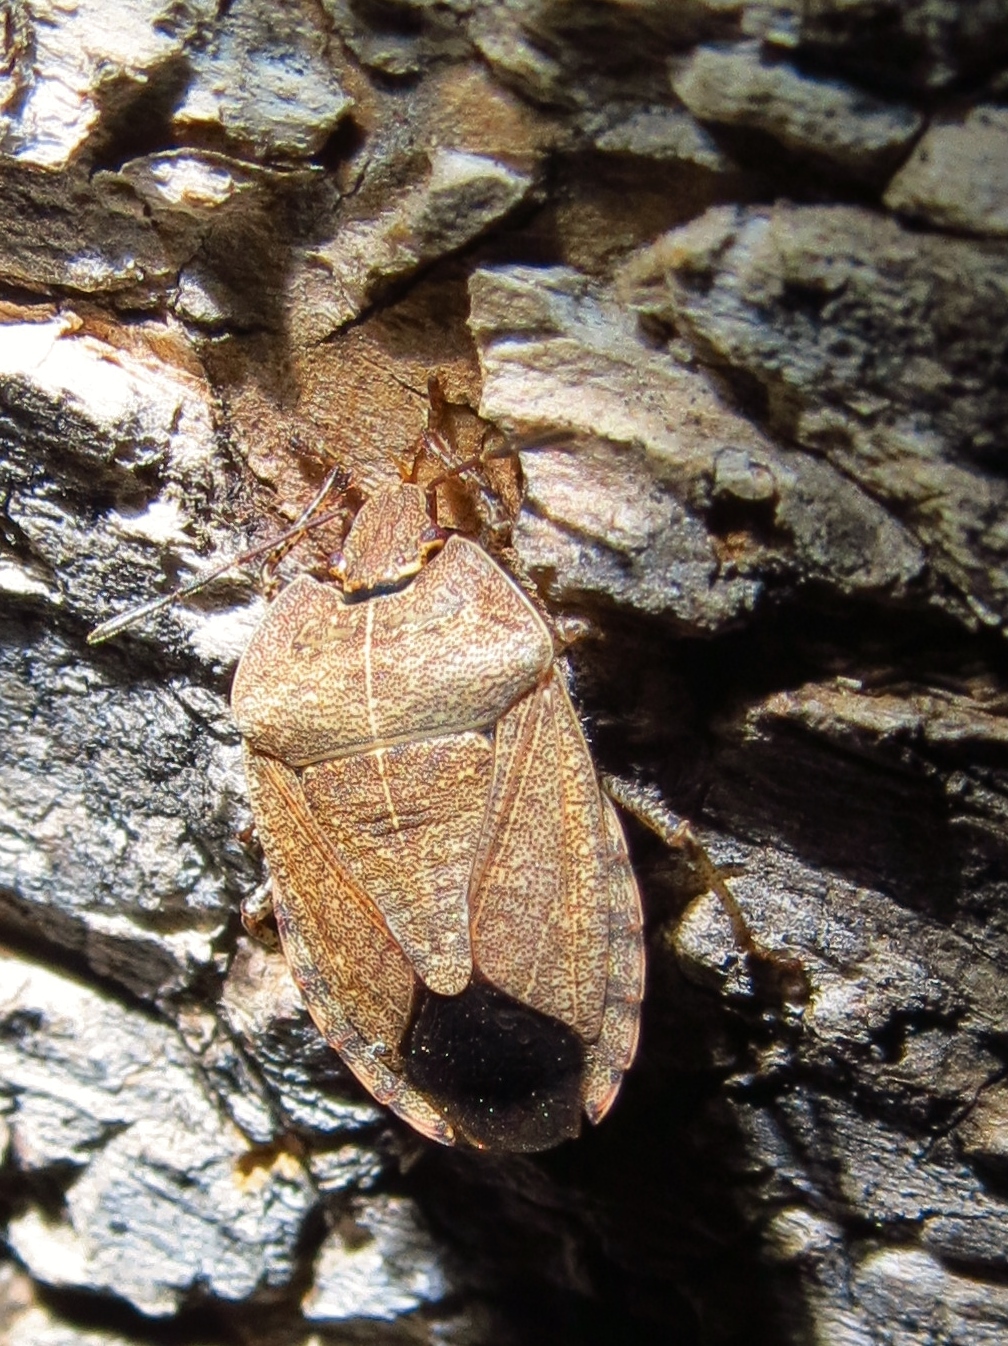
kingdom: Animalia
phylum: Arthropoda
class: Insecta
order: Hemiptera
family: Pentatomidae
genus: Menecles
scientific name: Menecles insertus
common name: Elf shoe stink bug
